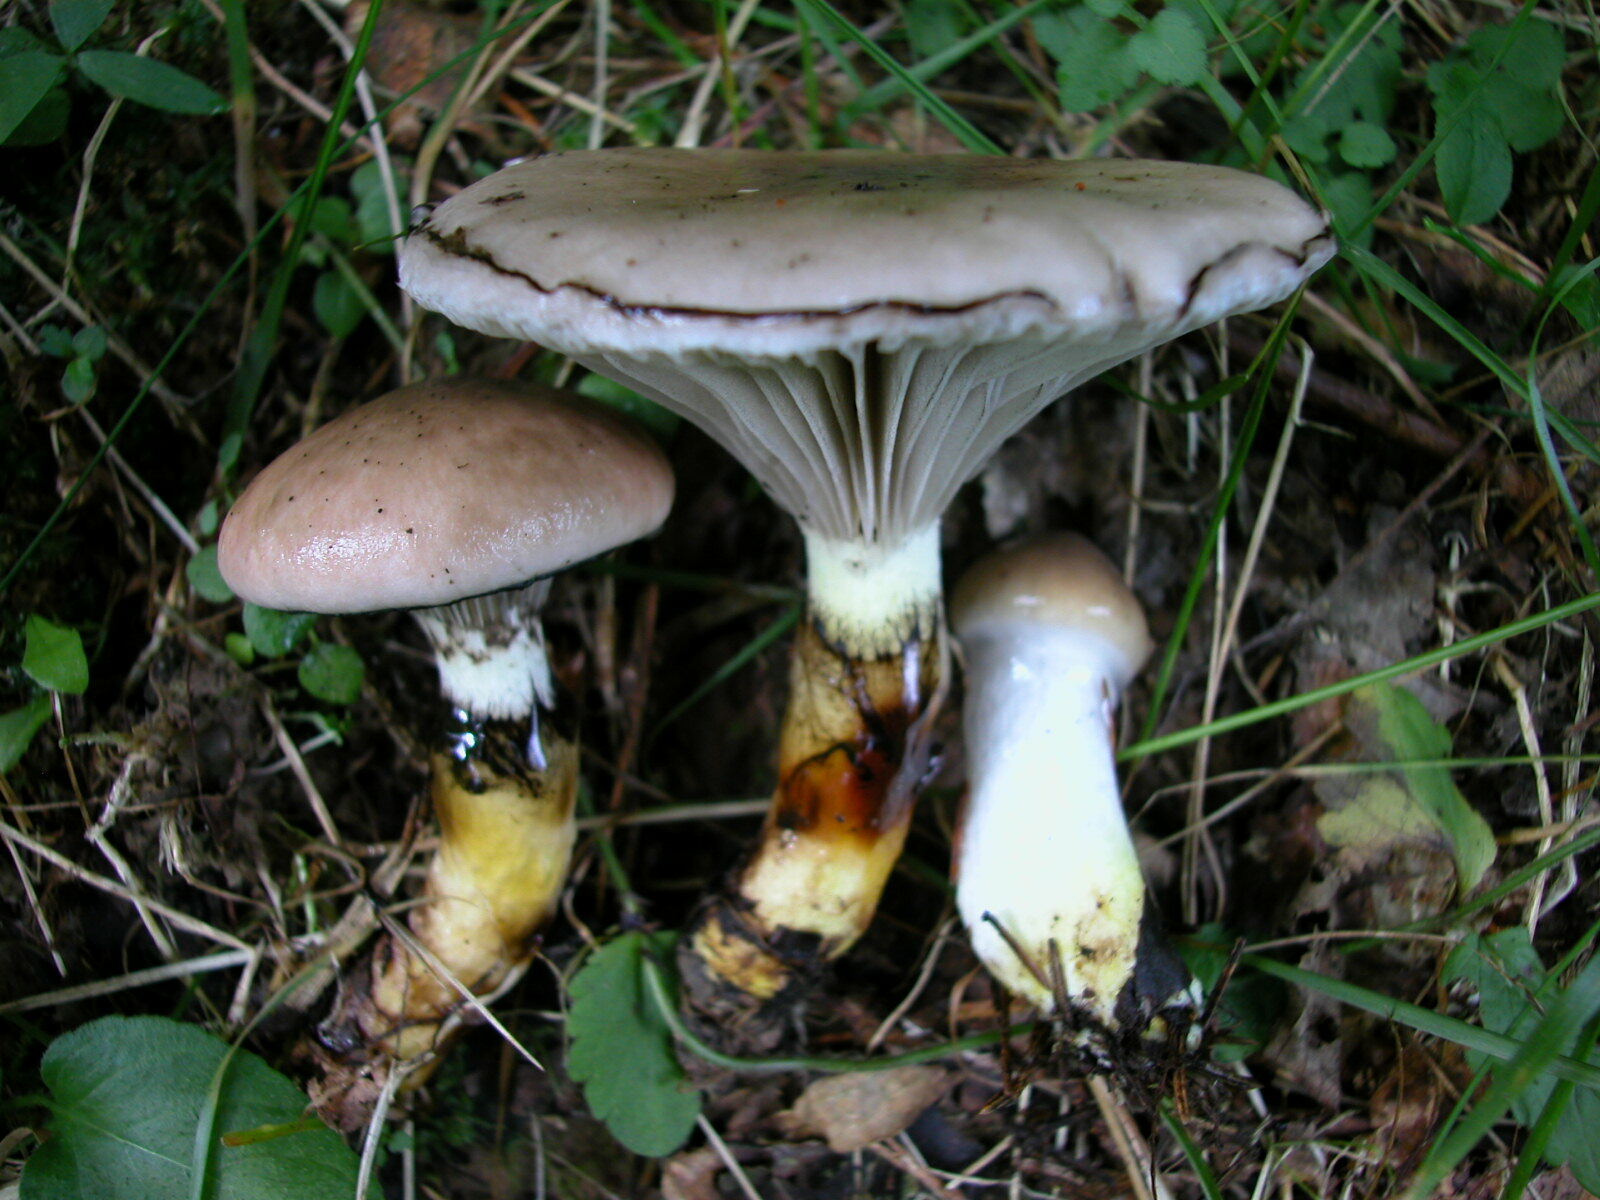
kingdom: Fungi
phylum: Basidiomycota
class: Agaricomycetes
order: Boletales
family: Gomphidiaceae
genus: Gomphidius
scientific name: Gomphidius glutinosus
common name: Slimy spike
